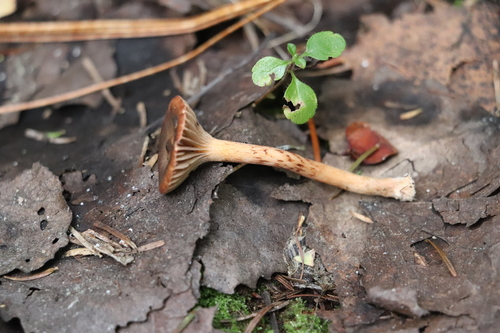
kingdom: Fungi
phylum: Basidiomycota
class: Agaricomycetes
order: Boletales
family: Gomphidiaceae
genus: Chroogomphus
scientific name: Chroogomphus rutilus
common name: Copper spike
